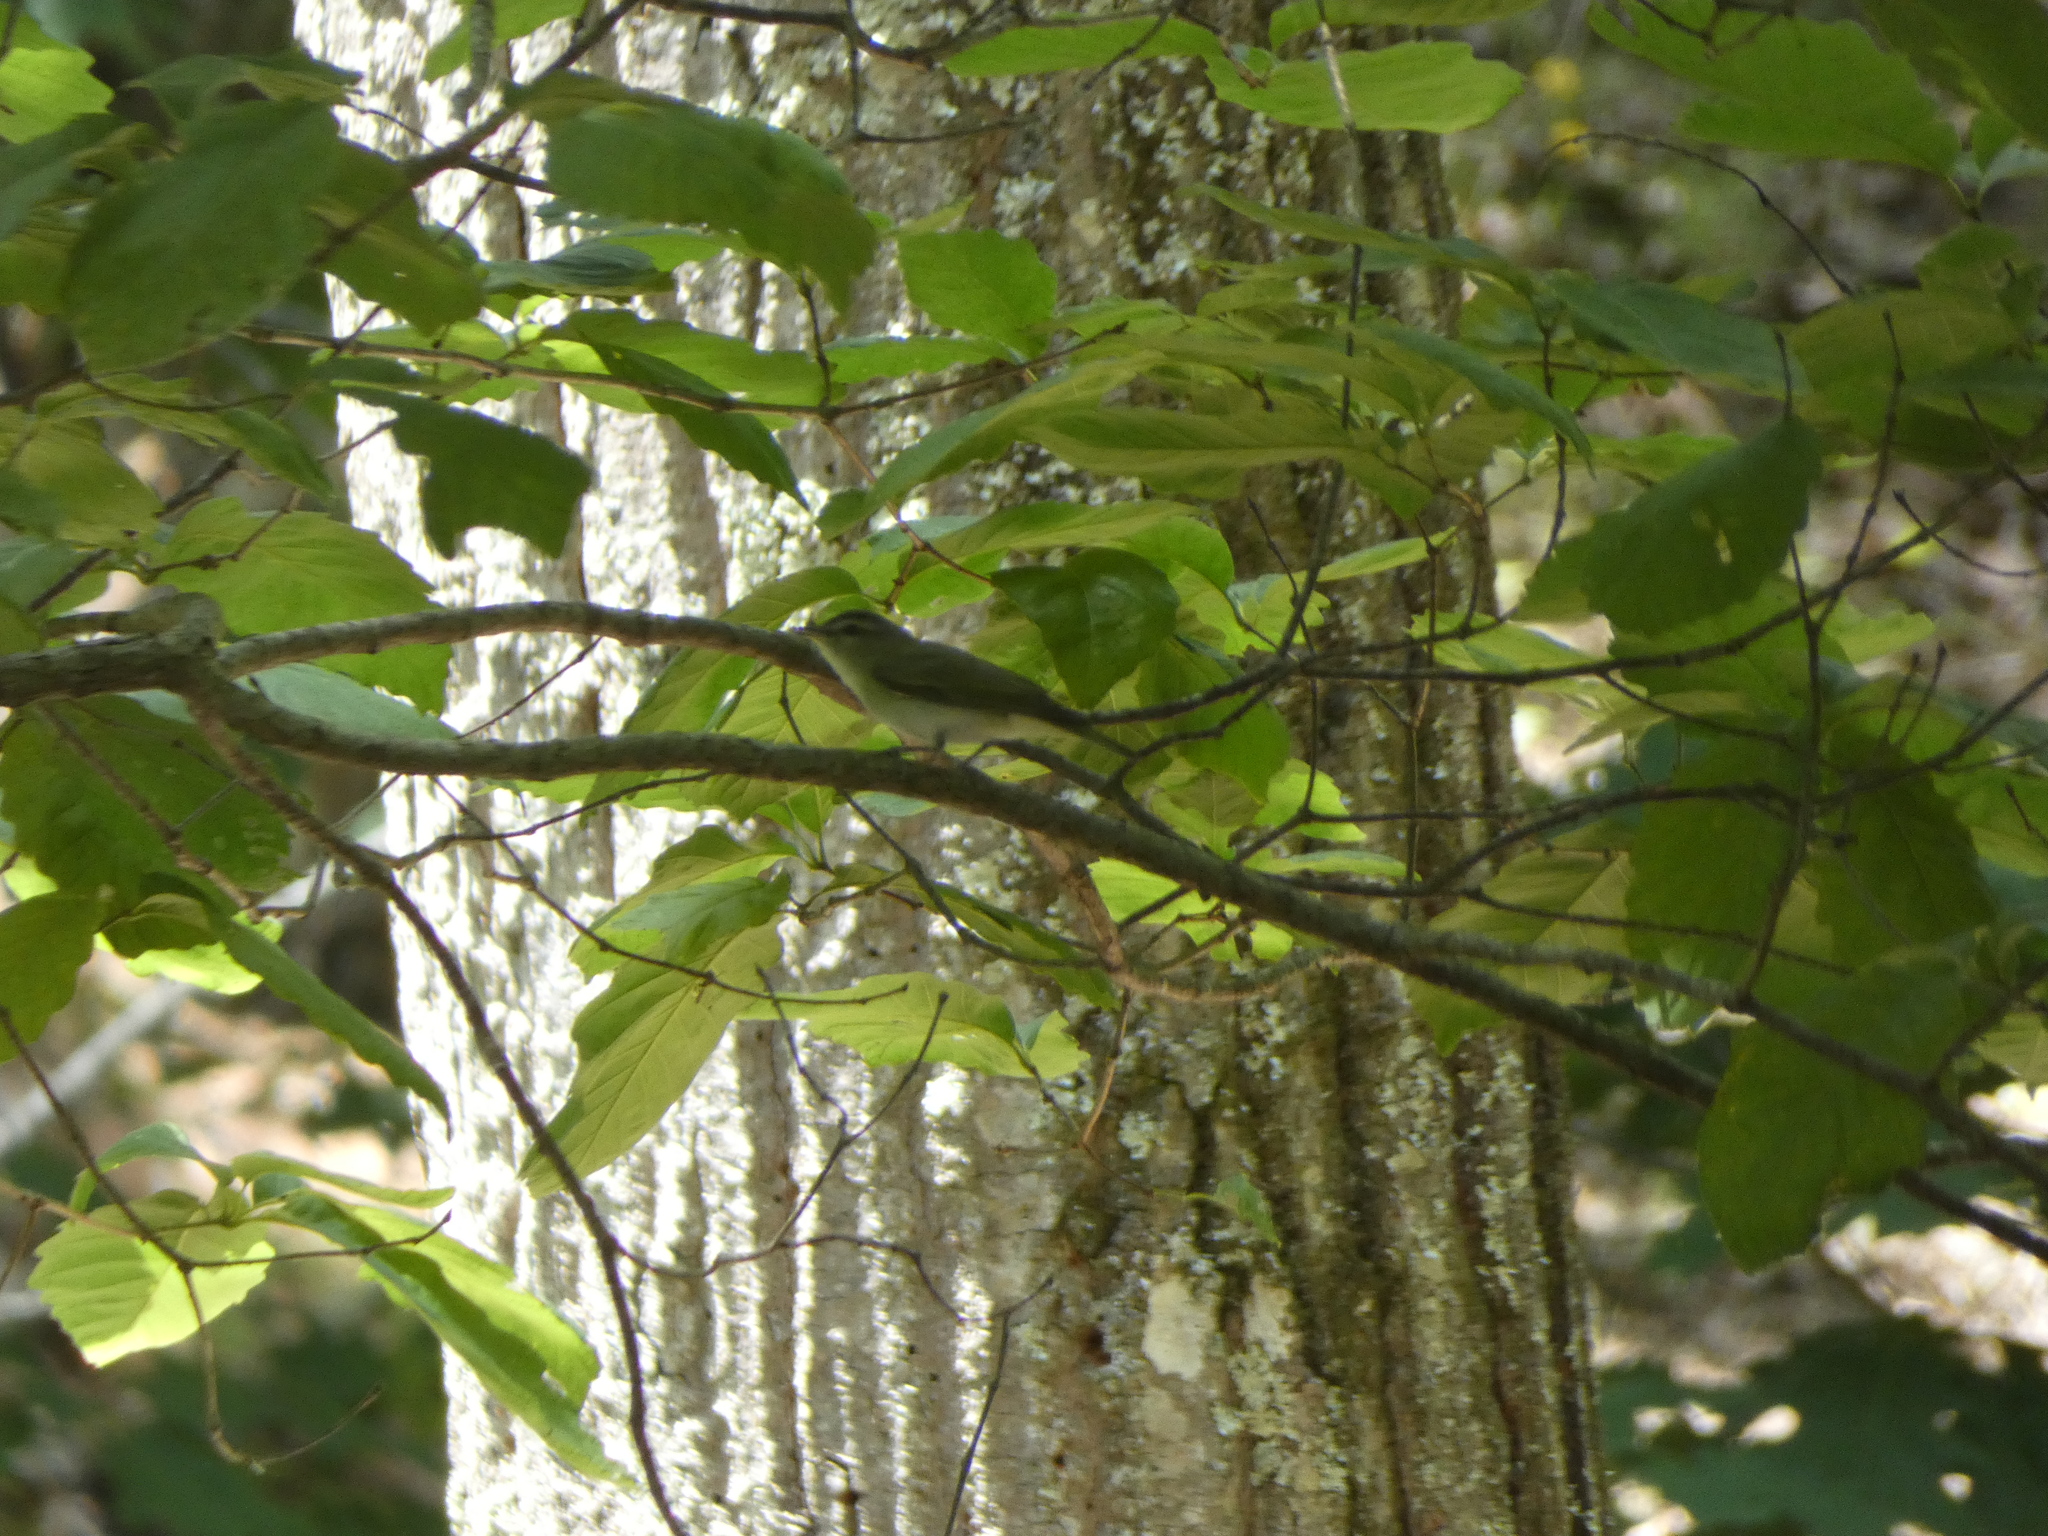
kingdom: Animalia
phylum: Chordata
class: Aves
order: Passeriformes
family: Vireonidae
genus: Vireo
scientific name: Vireo olivaceus
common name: Red-eyed vireo
